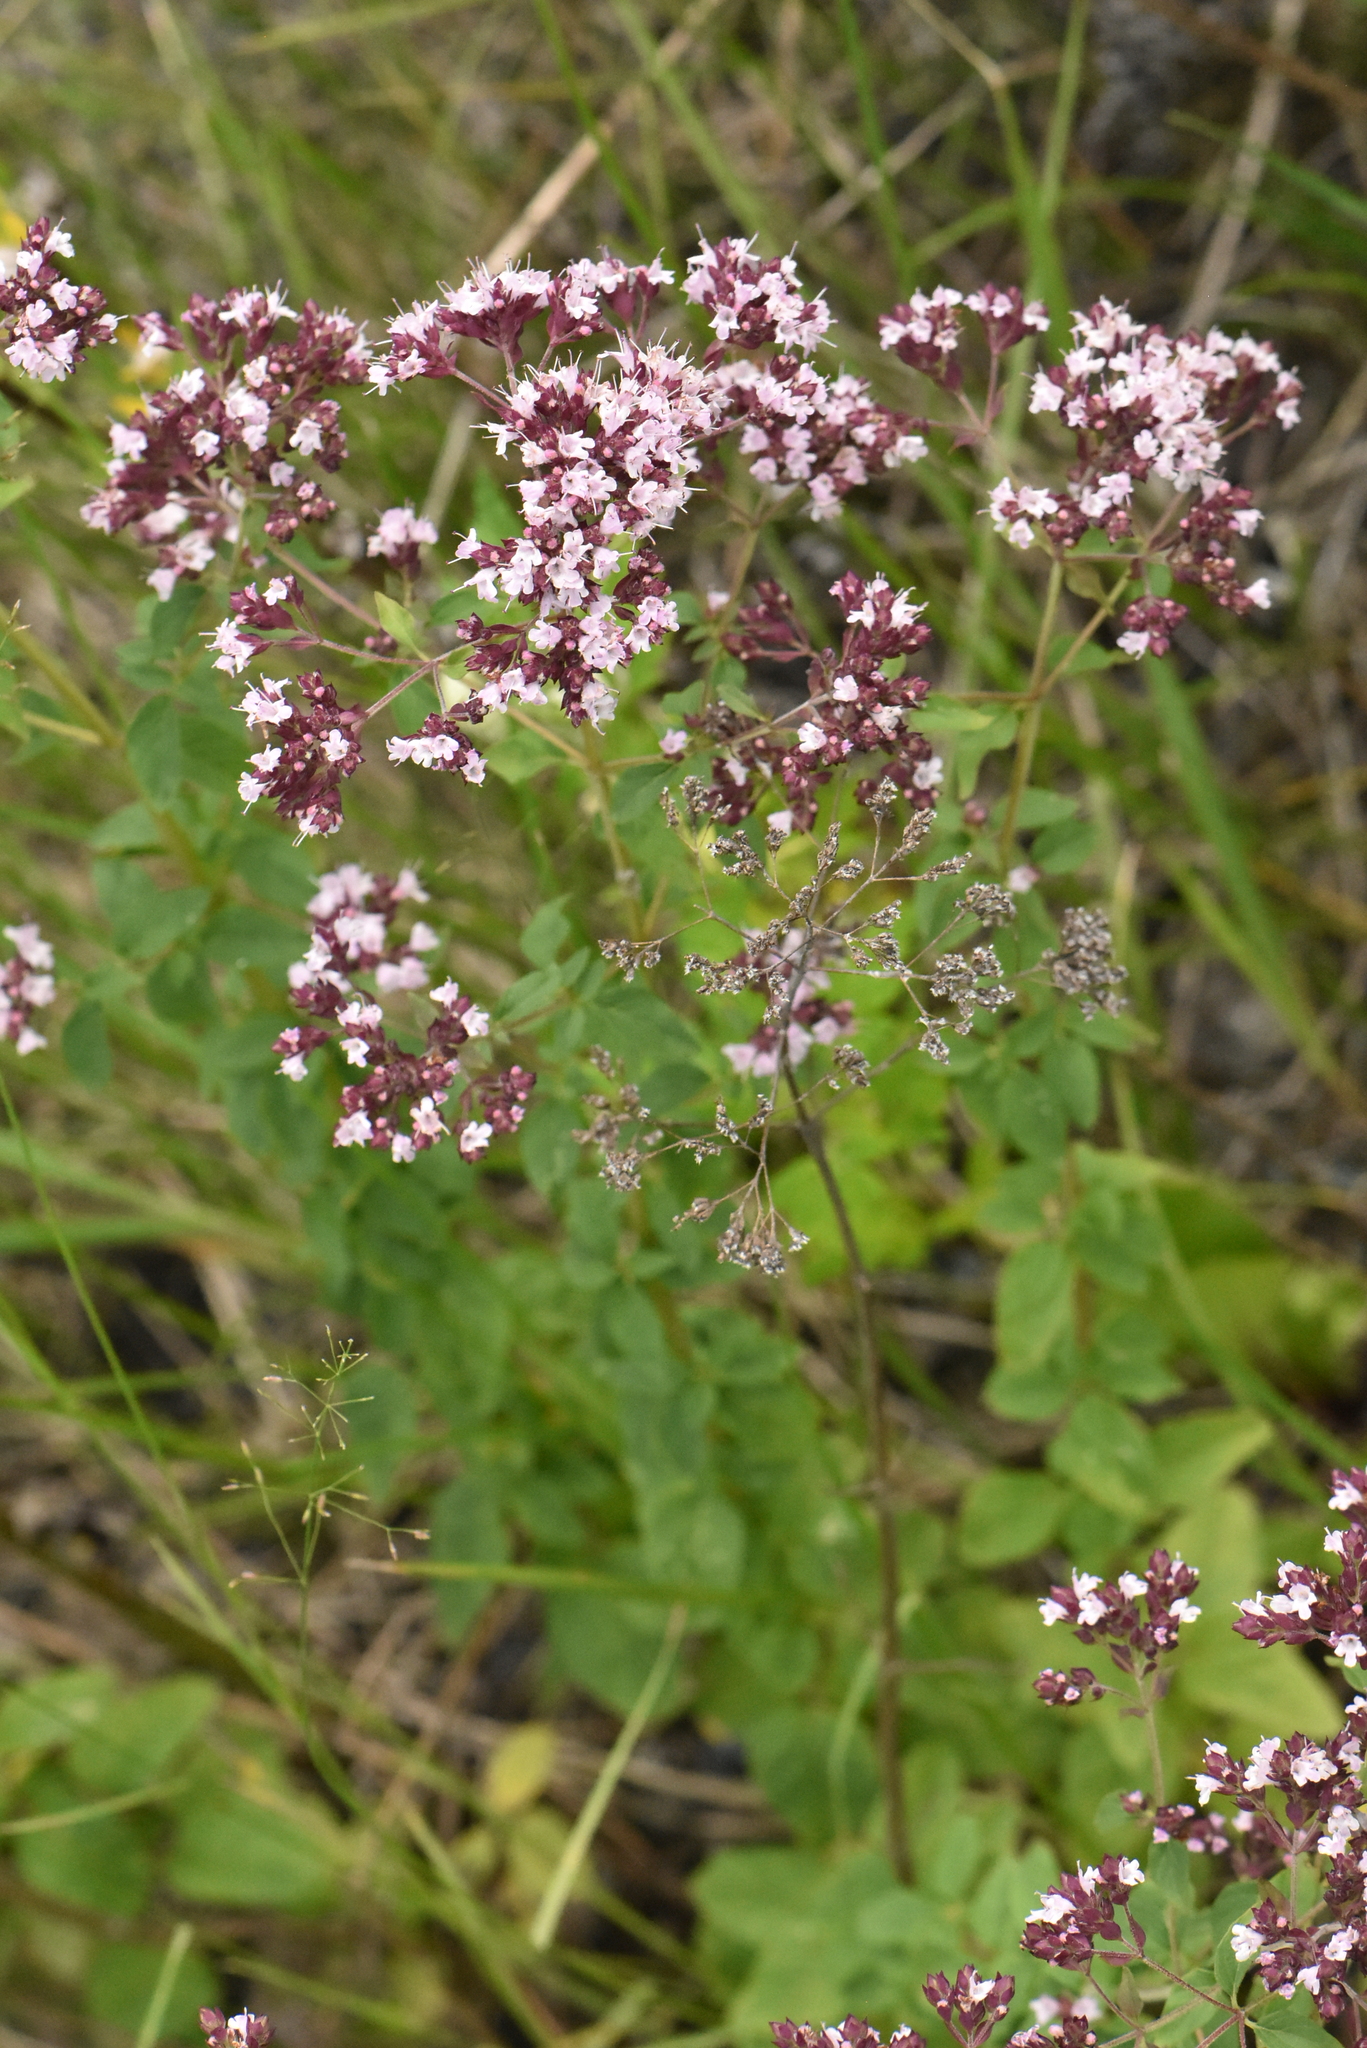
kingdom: Plantae
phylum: Tracheophyta
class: Magnoliopsida
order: Lamiales
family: Lamiaceae
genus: Origanum
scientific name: Origanum vulgare
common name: Wild marjoram
